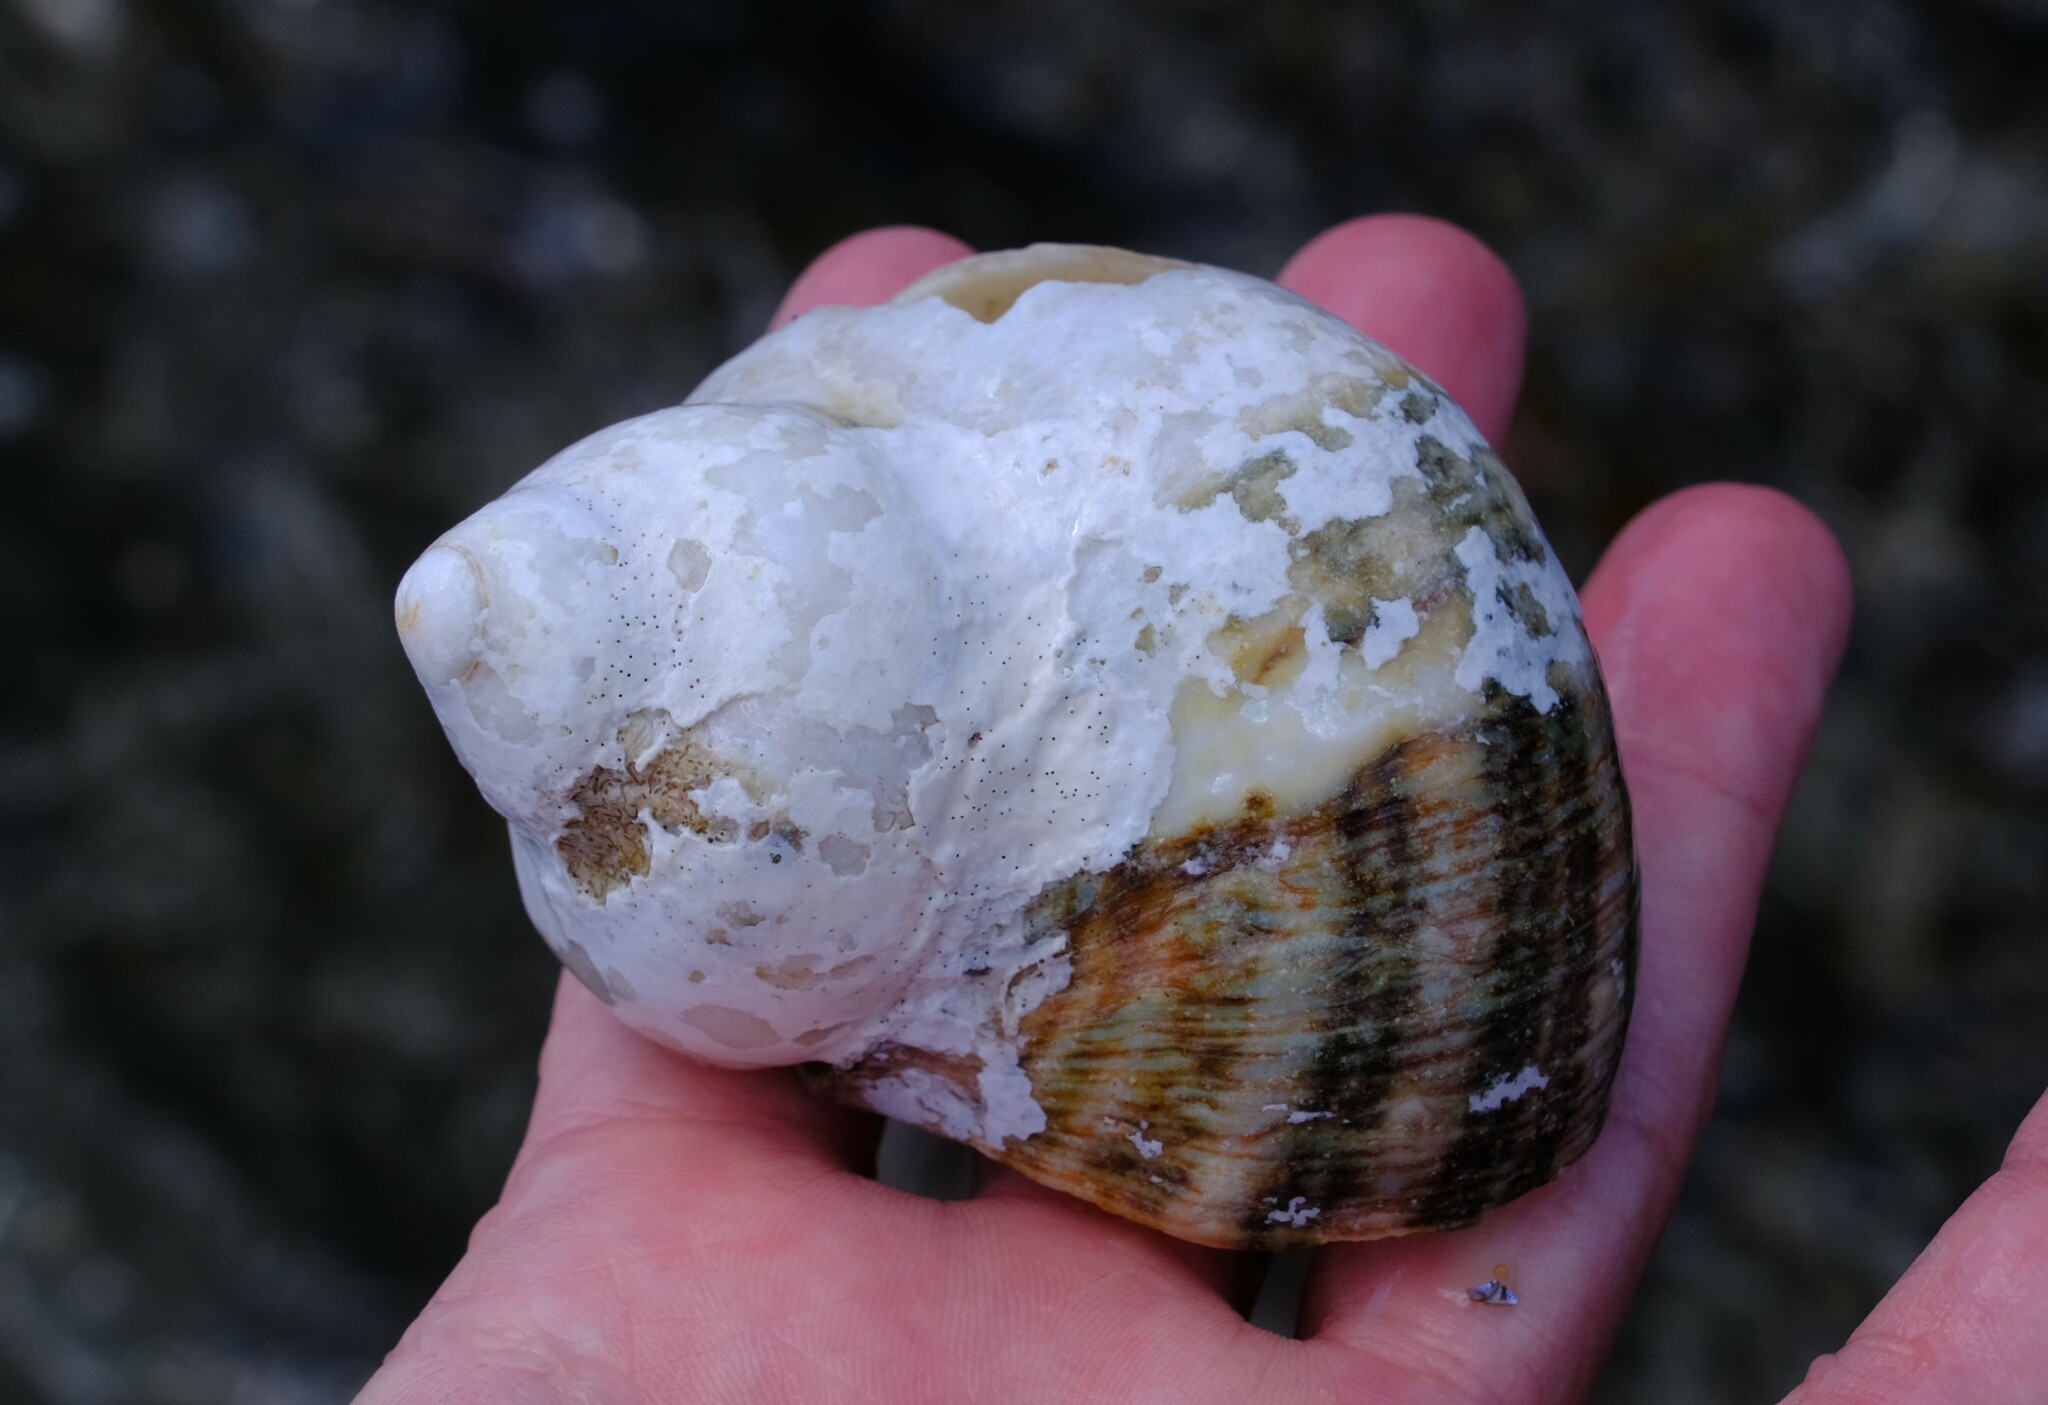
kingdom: Animalia
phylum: Mollusca
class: Gastropoda
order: Trochida
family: Turbinidae
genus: Turbo
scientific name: Turbo militaris
